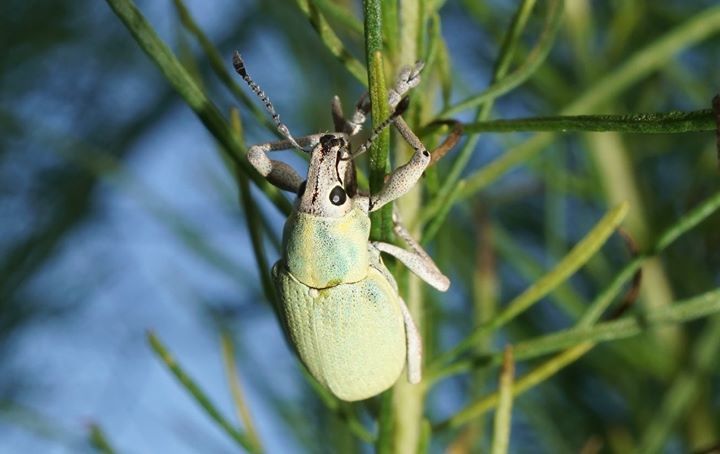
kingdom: Animalia
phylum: Arthropoda
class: Insecta
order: Coleoptera
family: Curculionidae
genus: Pachnaeus
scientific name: Pachnaeus litus
